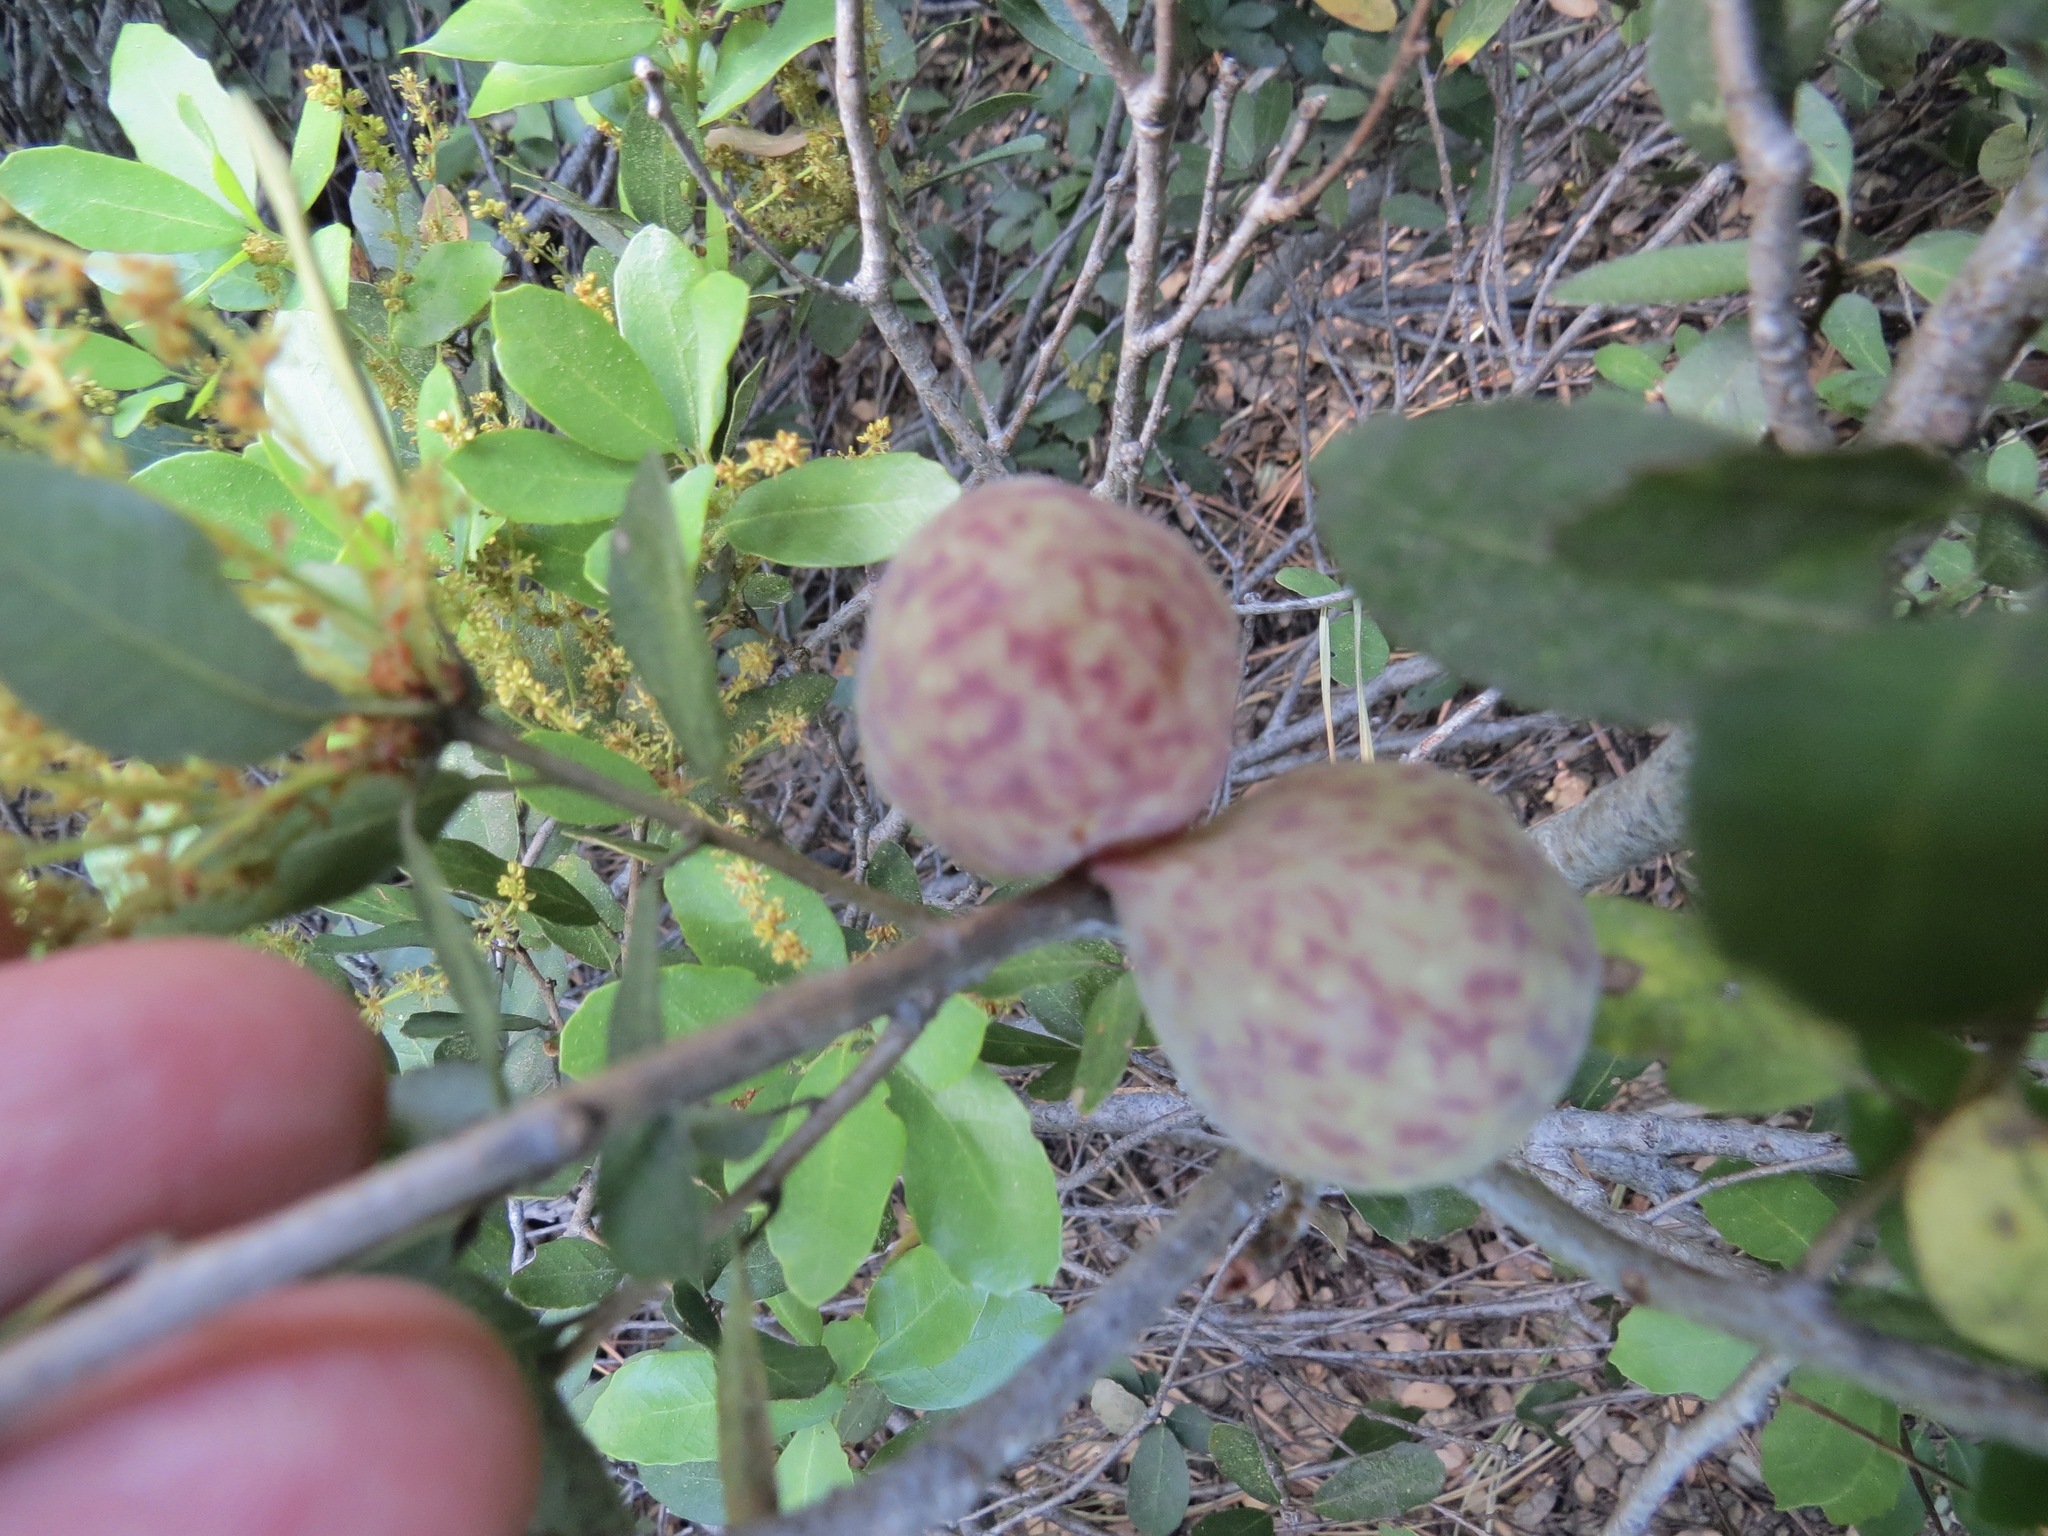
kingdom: Animalia
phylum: Arthropoda
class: Insecta
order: Hymenoptera
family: Cynipidae
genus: Andricus
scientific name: Andricus
